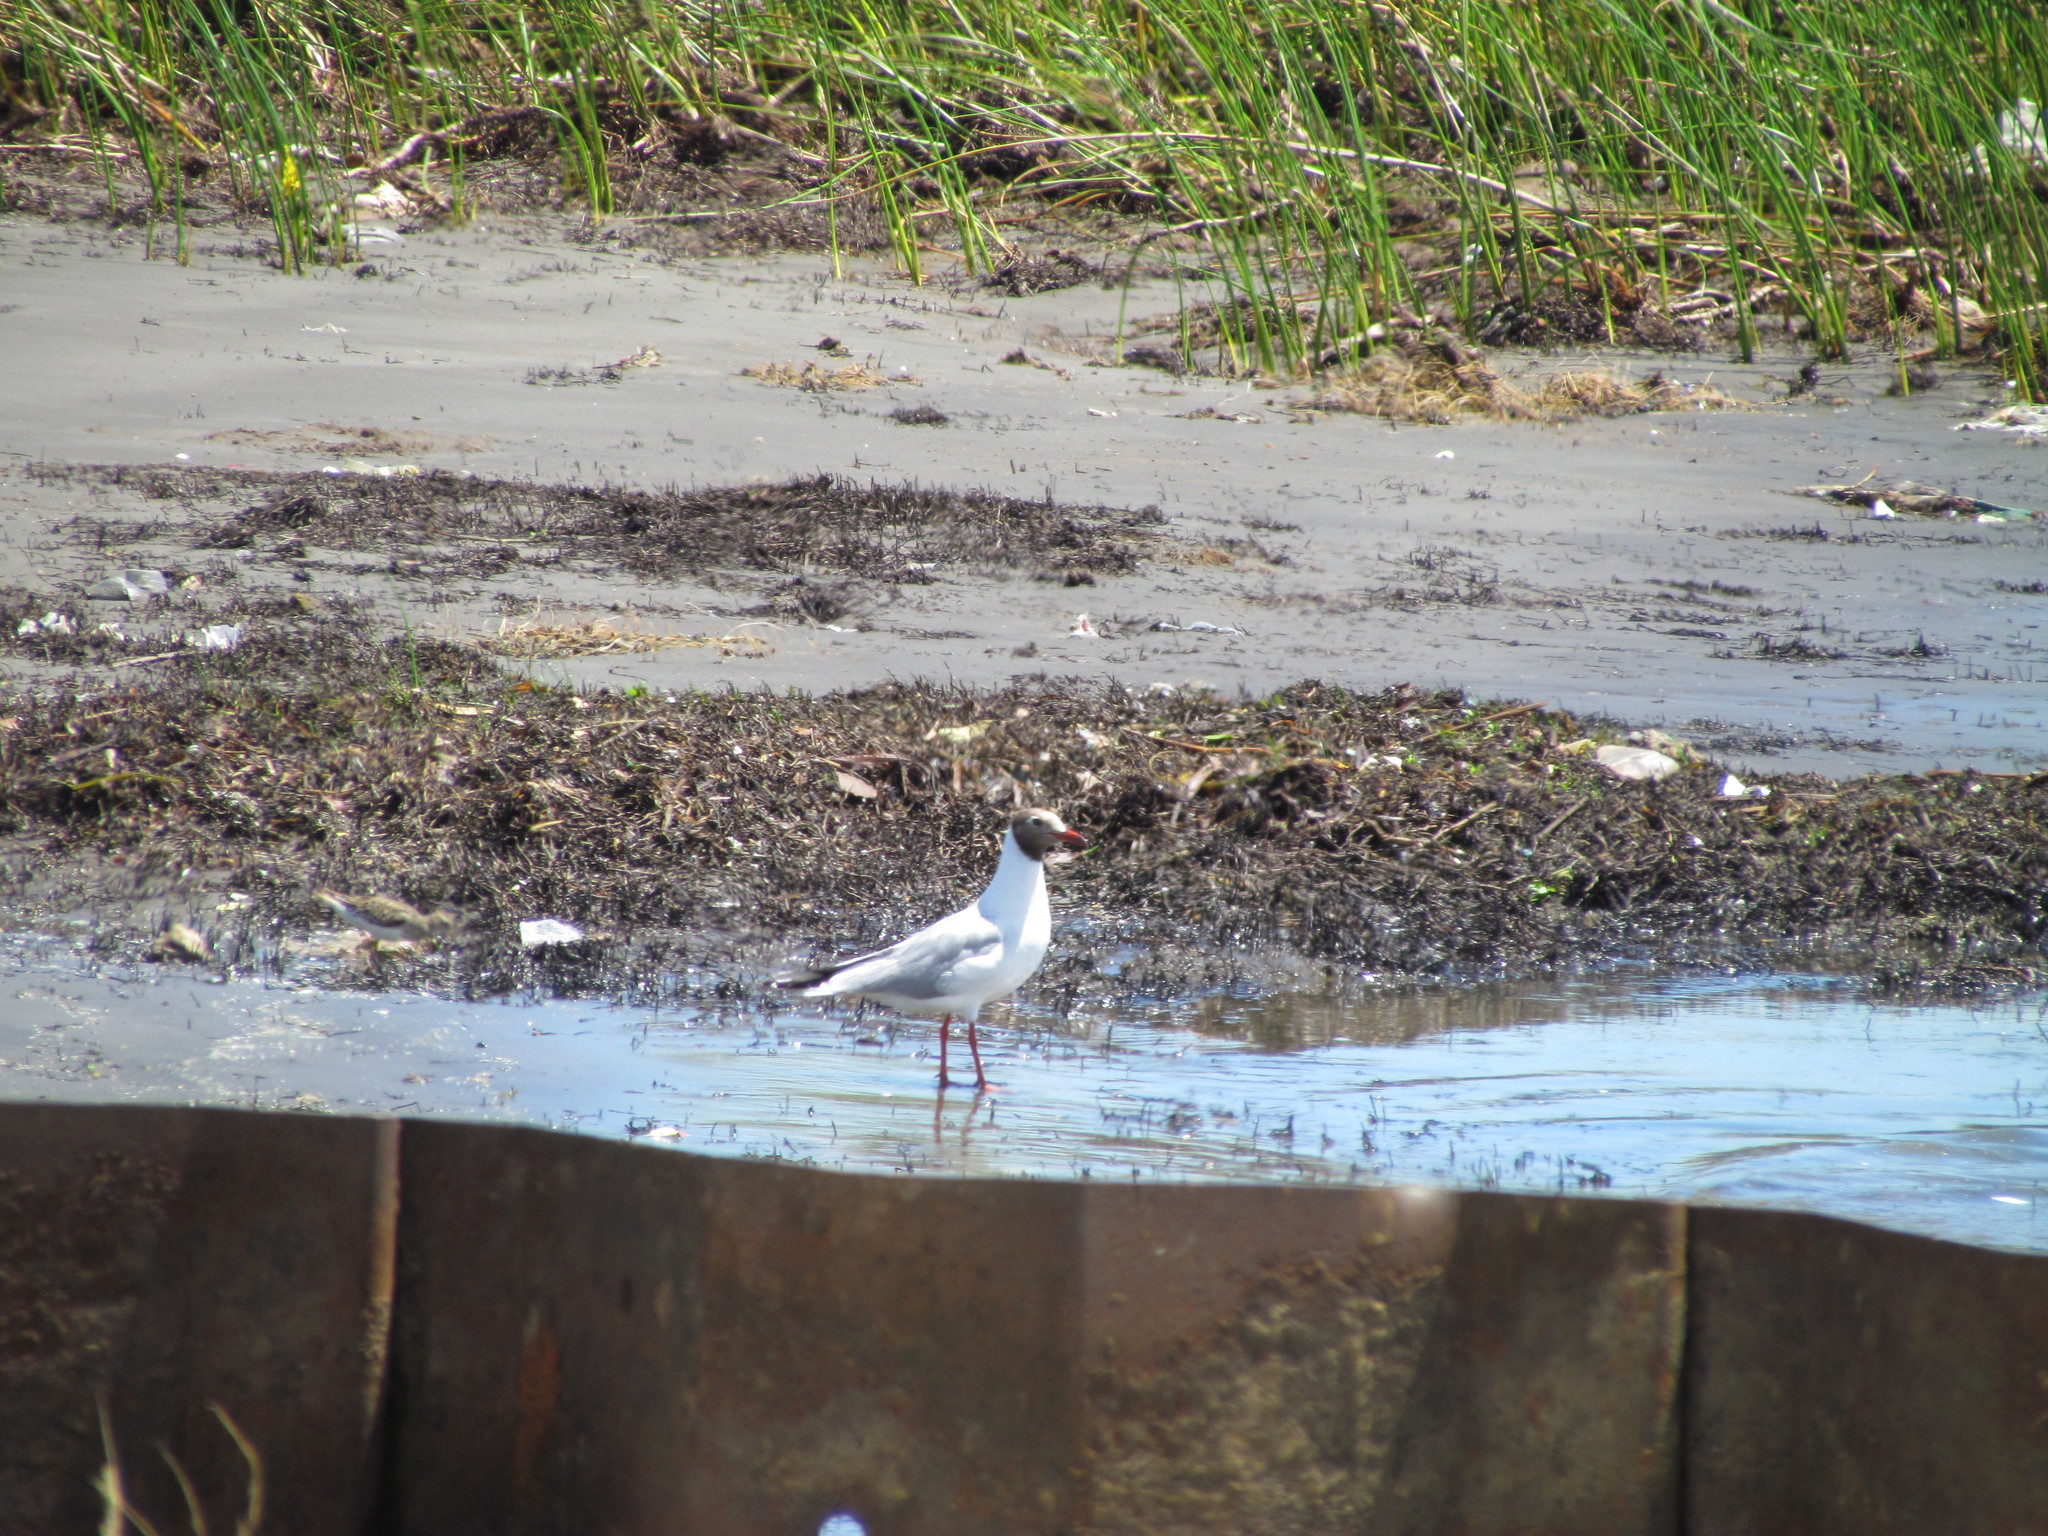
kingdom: Animalia
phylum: Chordata
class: Aves
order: Charadriiformes
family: Laridae
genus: Chroicocephalus
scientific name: Chroicocephalus maculipennis
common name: Brown-hooded gull
